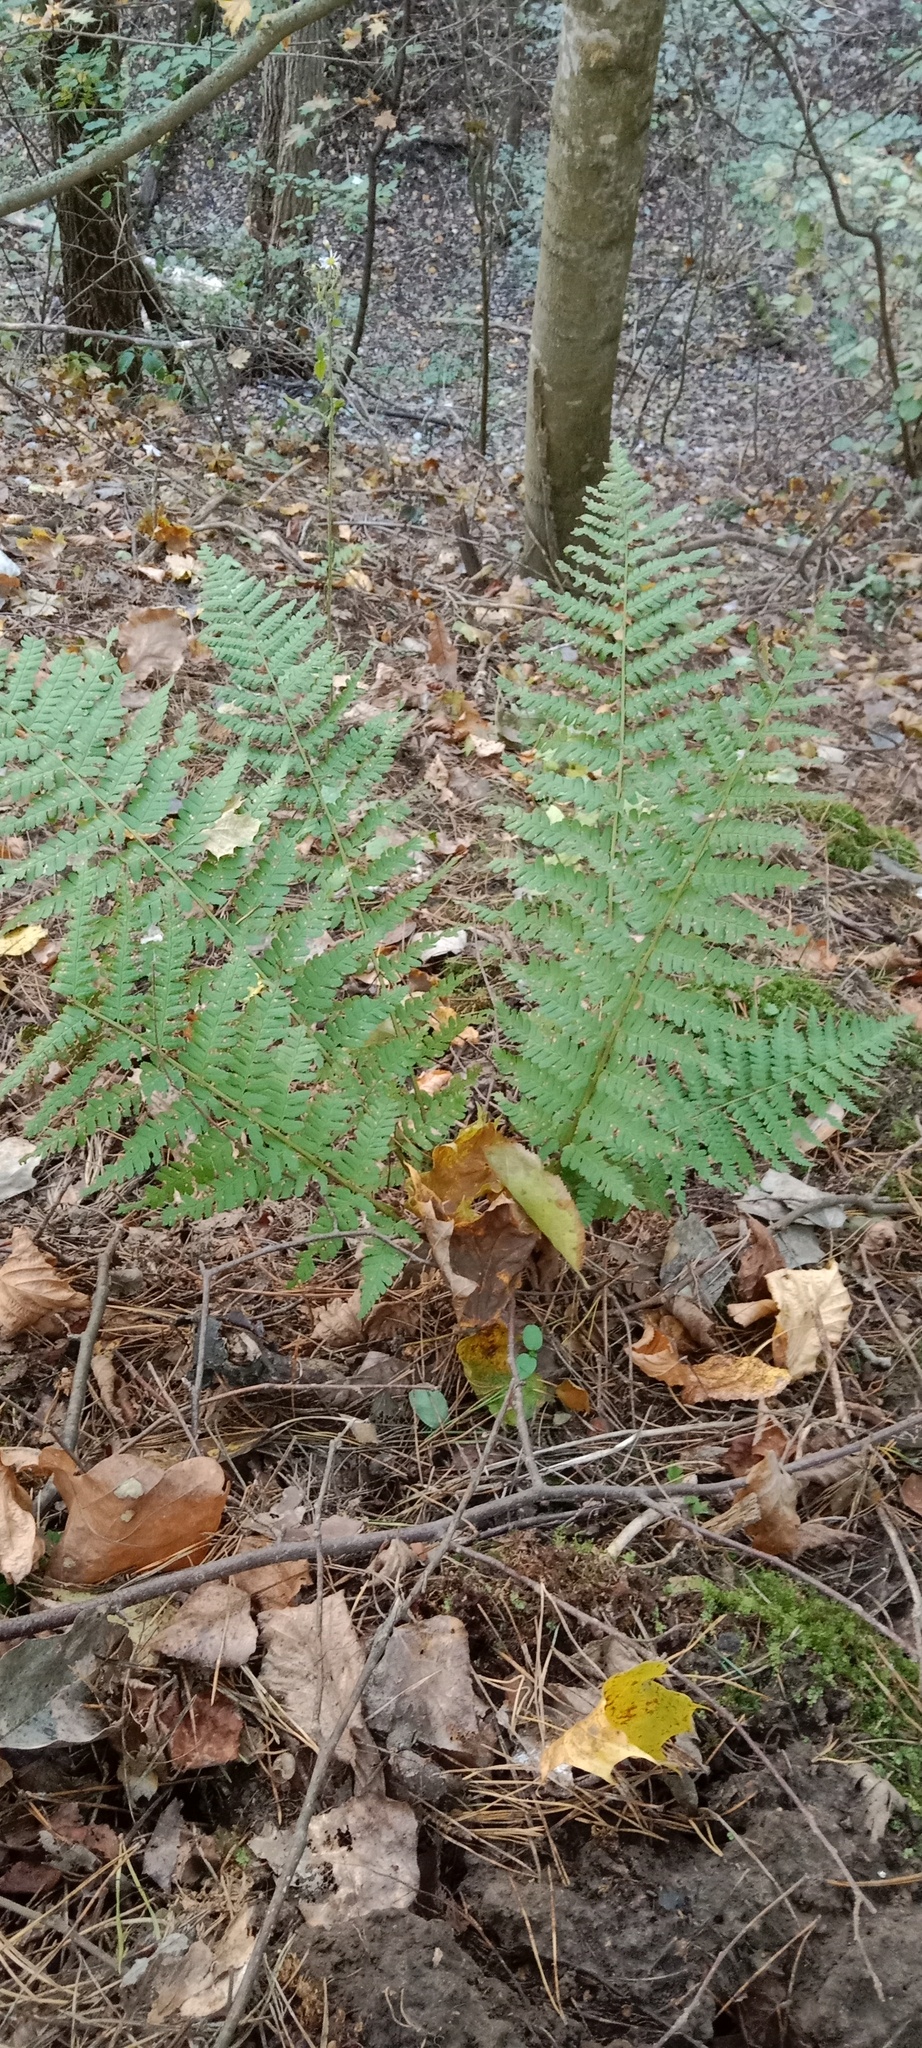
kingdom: Plantae
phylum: Tracheophyta
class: Polypodiopsida
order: Polypodiales
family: Dryopteridaceae
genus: Dryopteris
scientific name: Dryopteris filix-mas
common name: Male fern
